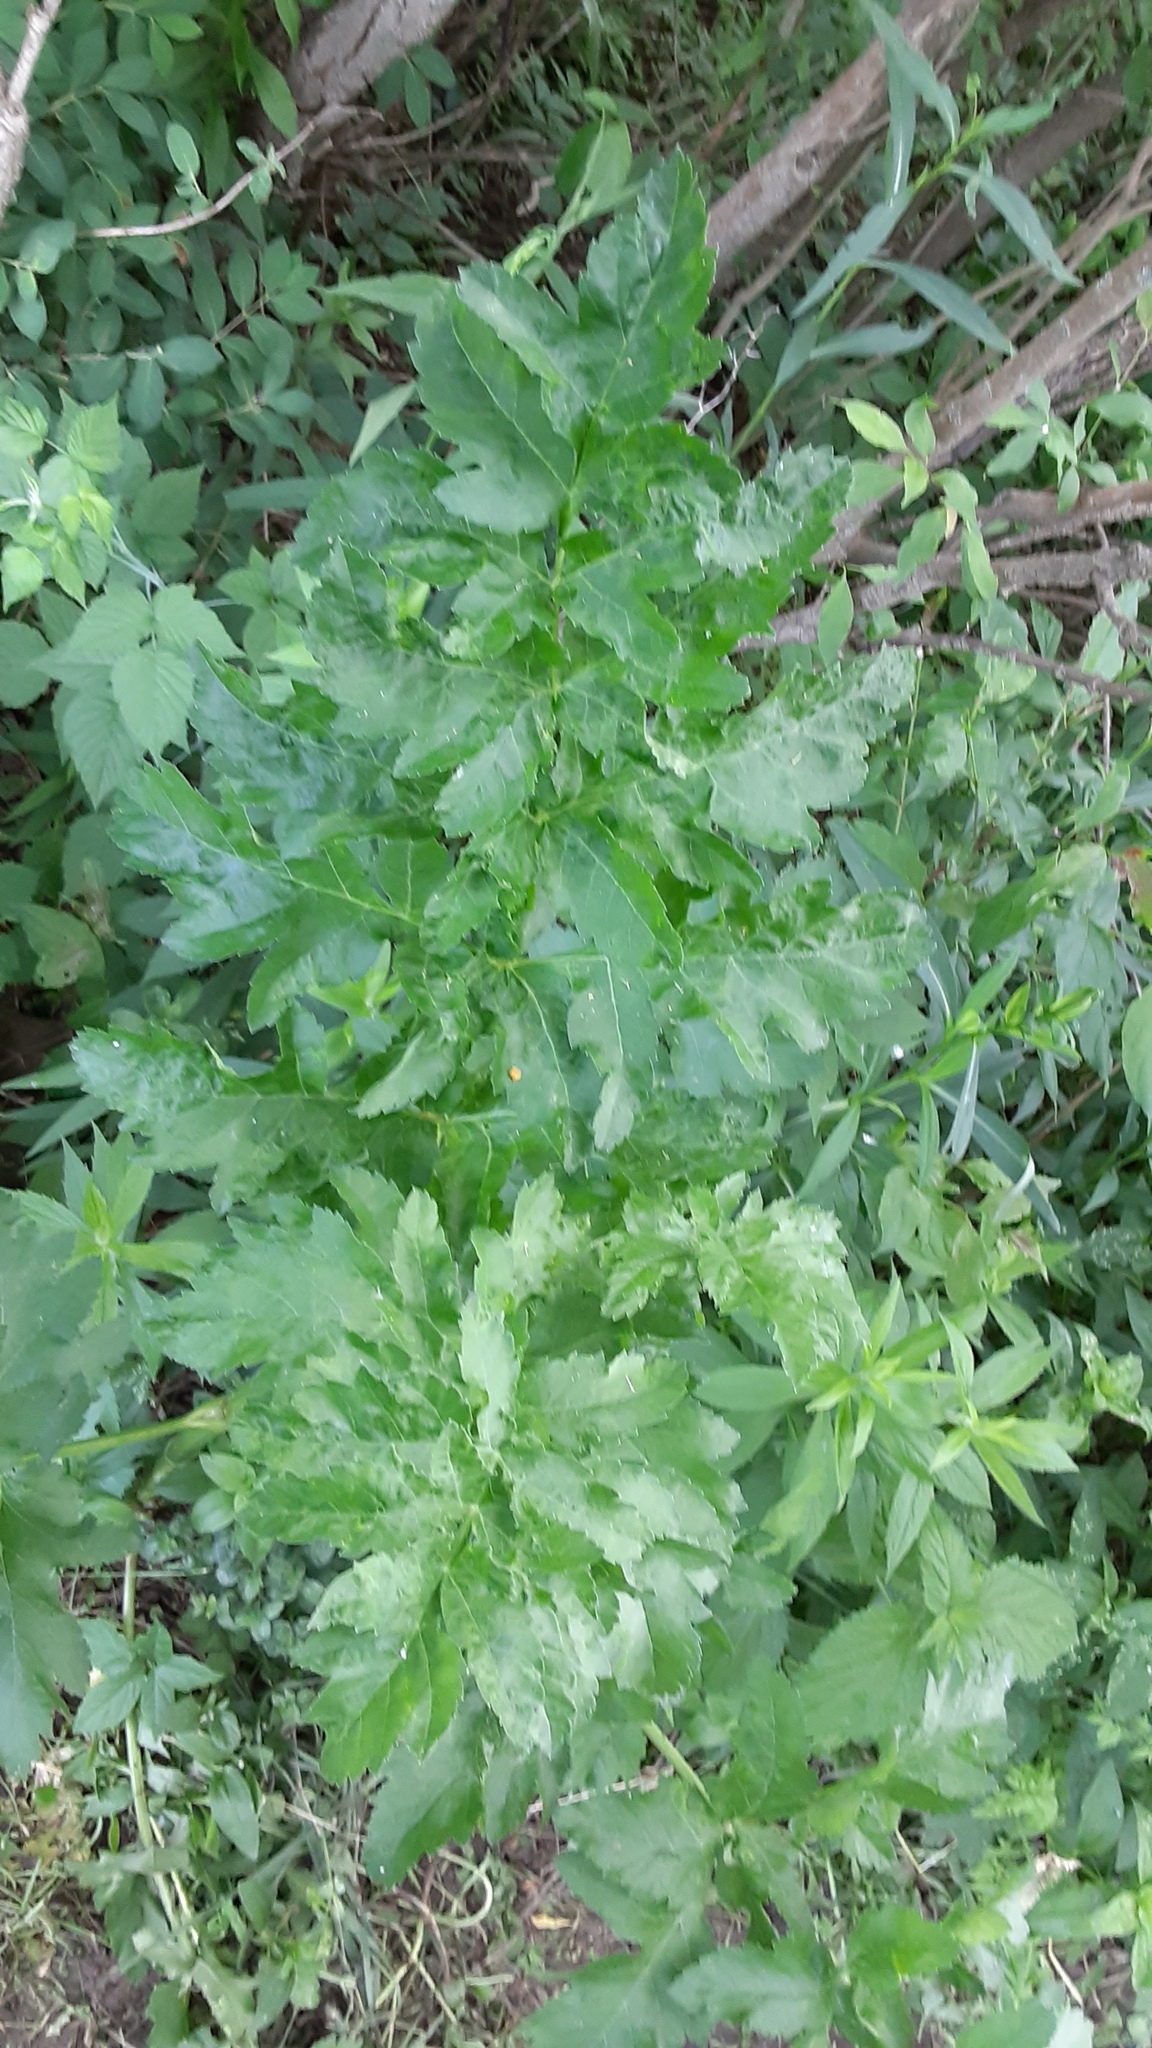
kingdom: Plantae
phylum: Tracheophyta
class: Magnoliopsida
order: Apiales
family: Apiaceae
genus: Pastinaca
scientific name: Pastinaca sativa
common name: Wild parsnip
